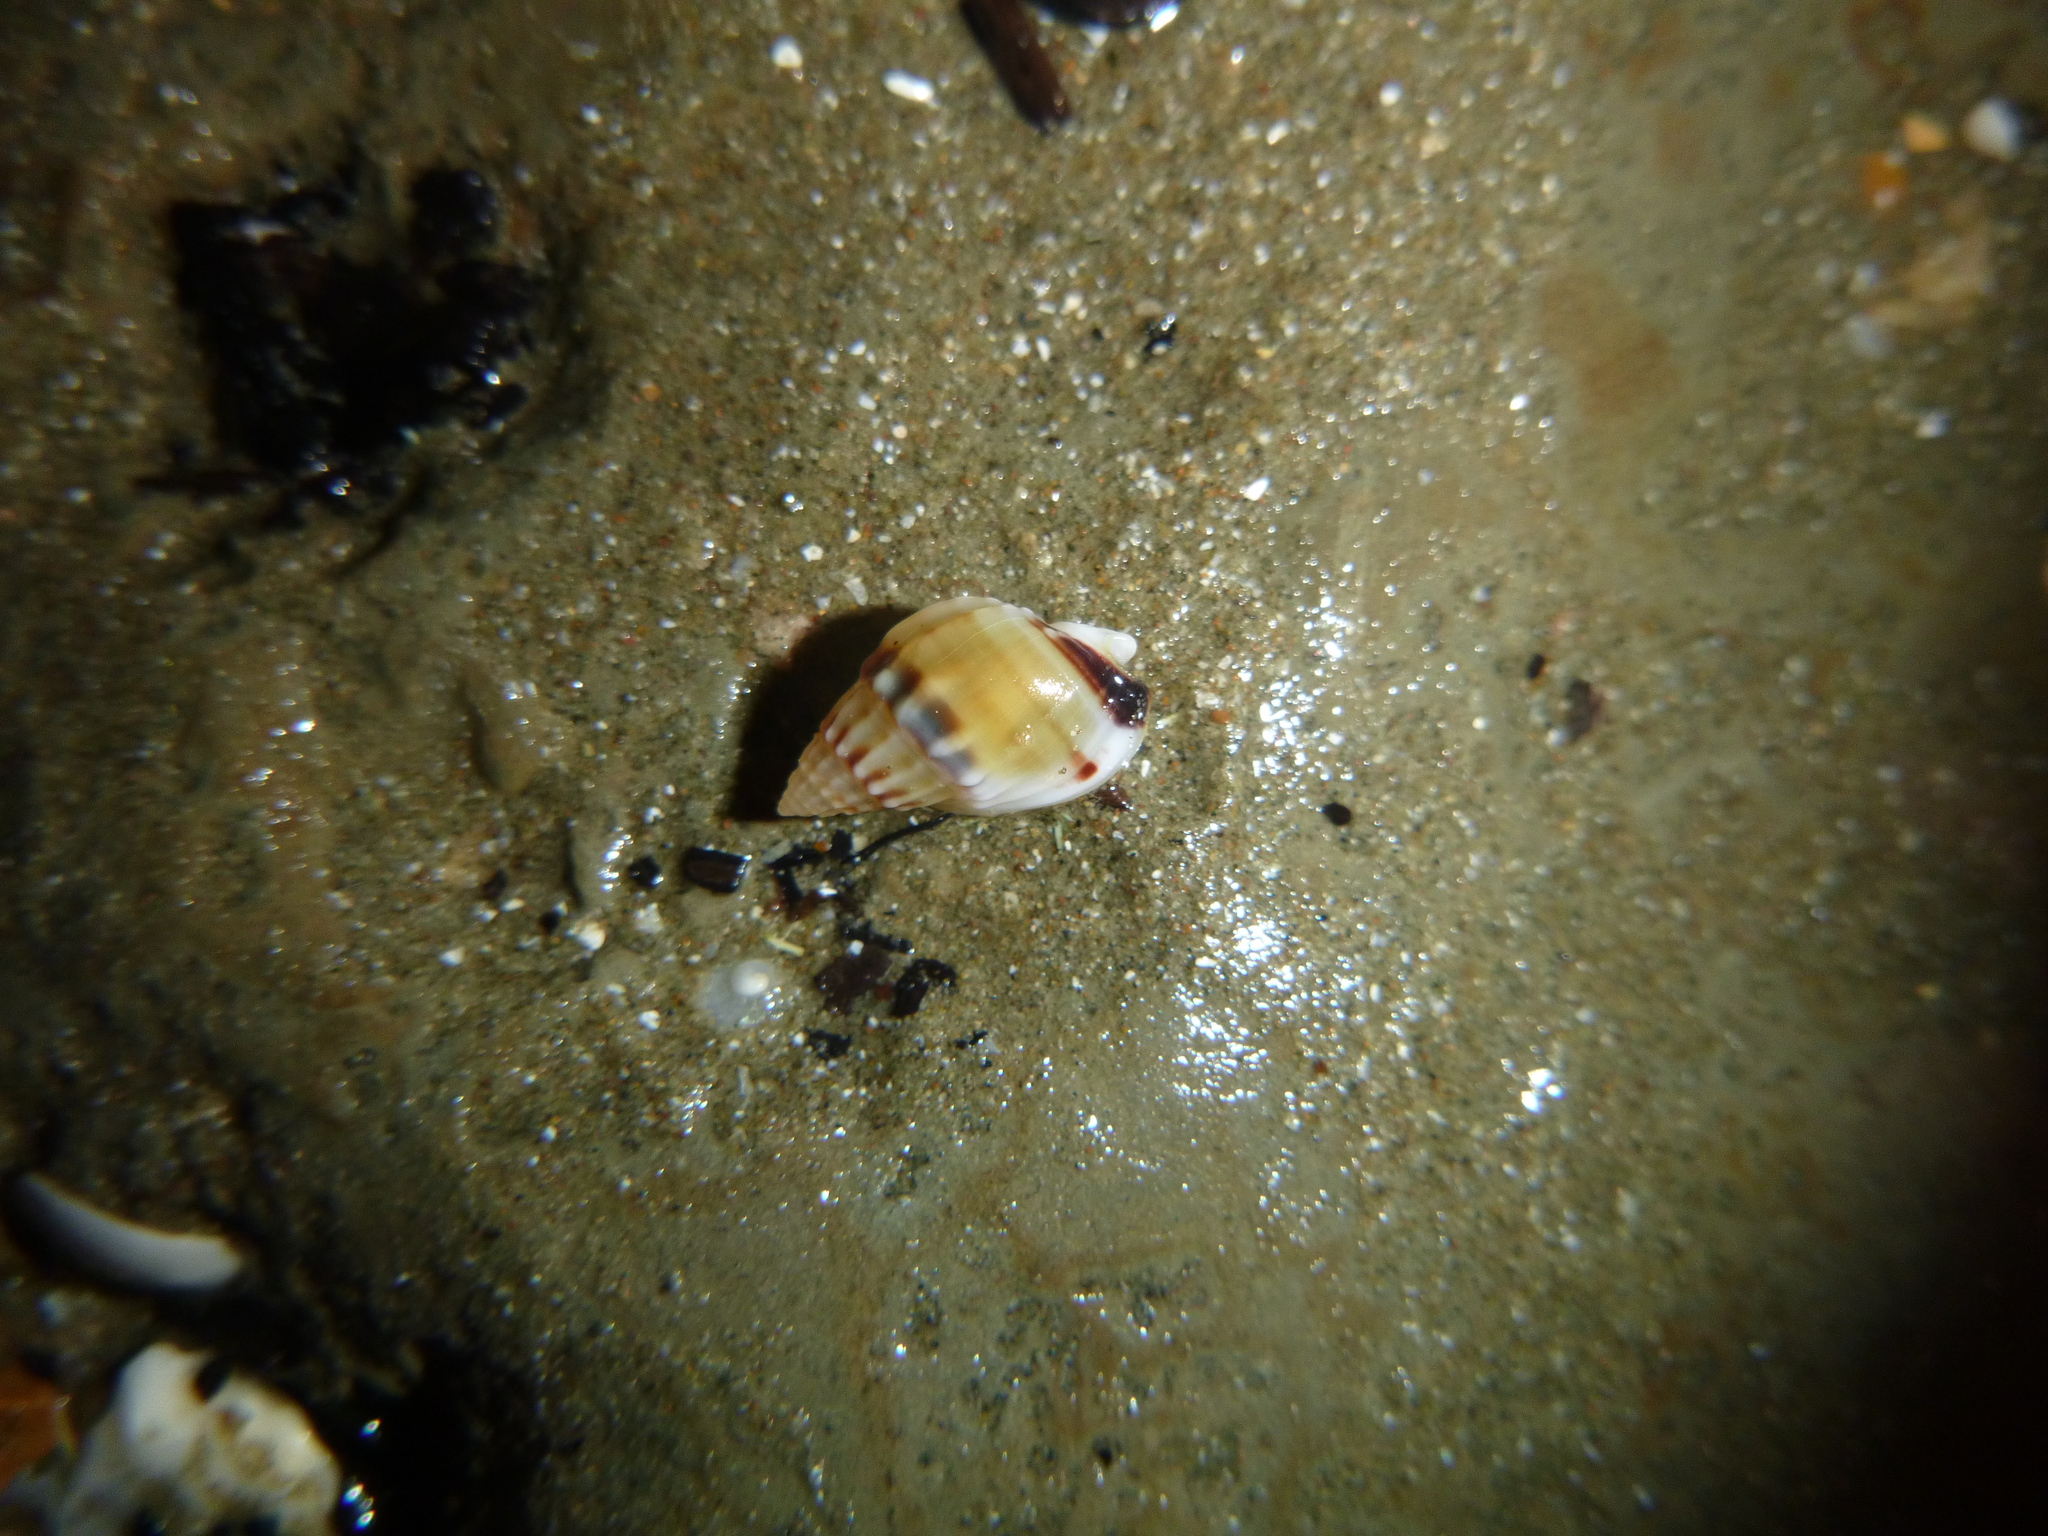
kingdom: Animalia
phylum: Mollusca
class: Gastropoda
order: Neogastropoda
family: Nassariidae
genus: Tritia
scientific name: Tritia burchardi
